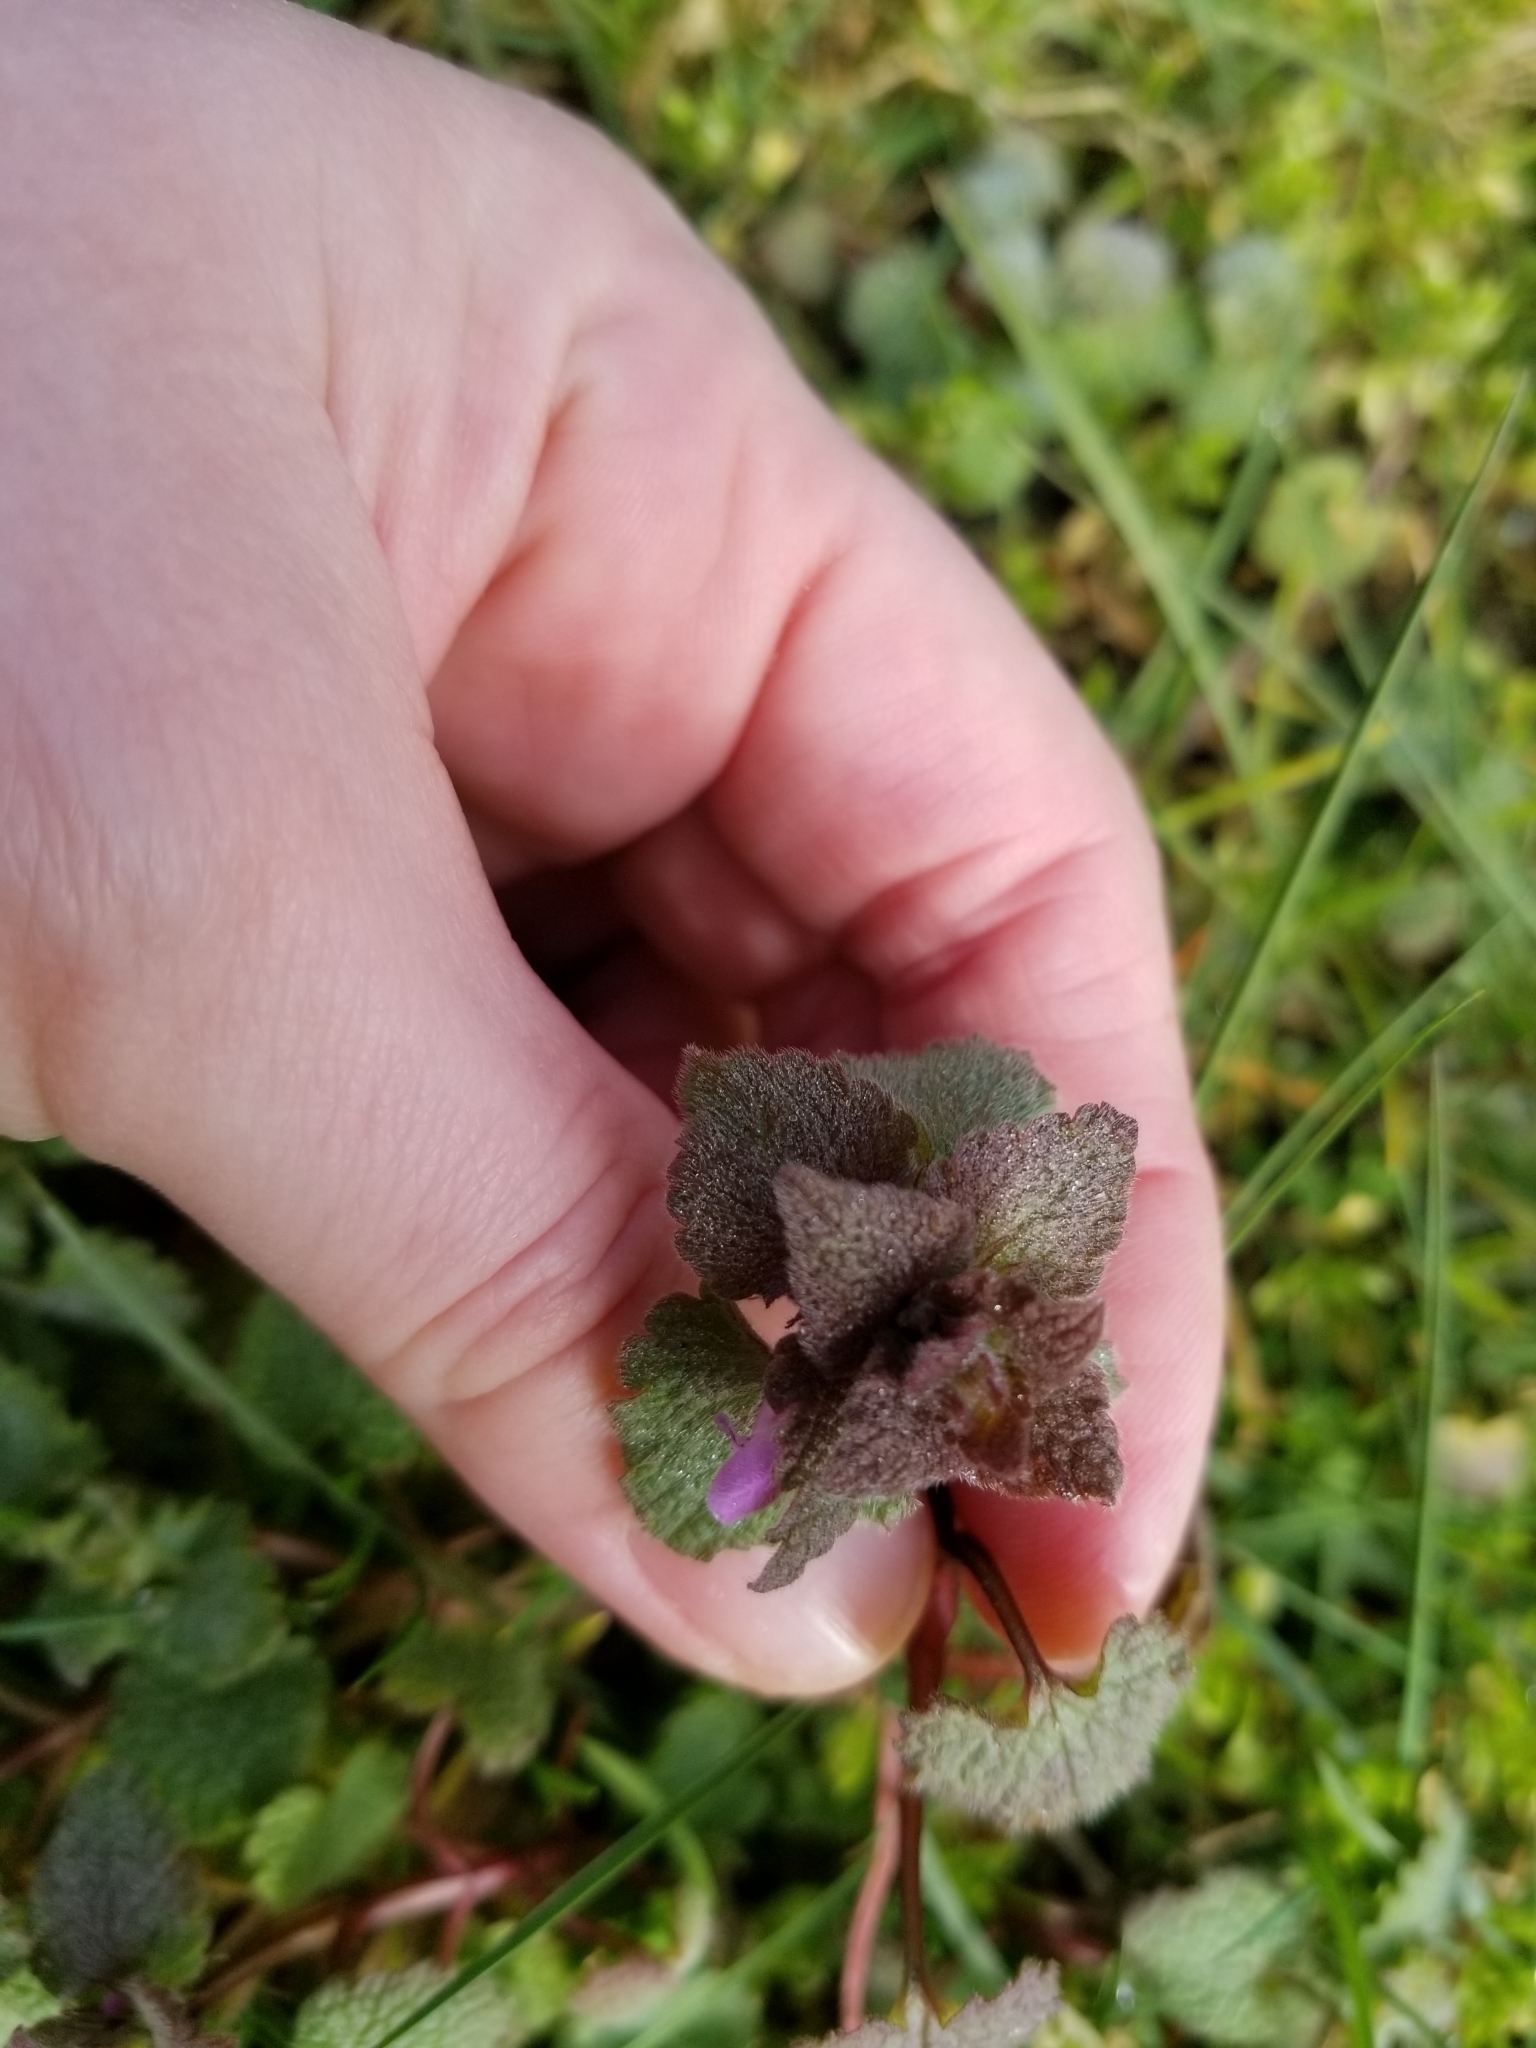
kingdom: Plantae
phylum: Tracheophyta
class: Magnoliopsida
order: Lamiales
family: Lamiaceae
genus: Lamium
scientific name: Lamium purpureum
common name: Red dead-nettle
